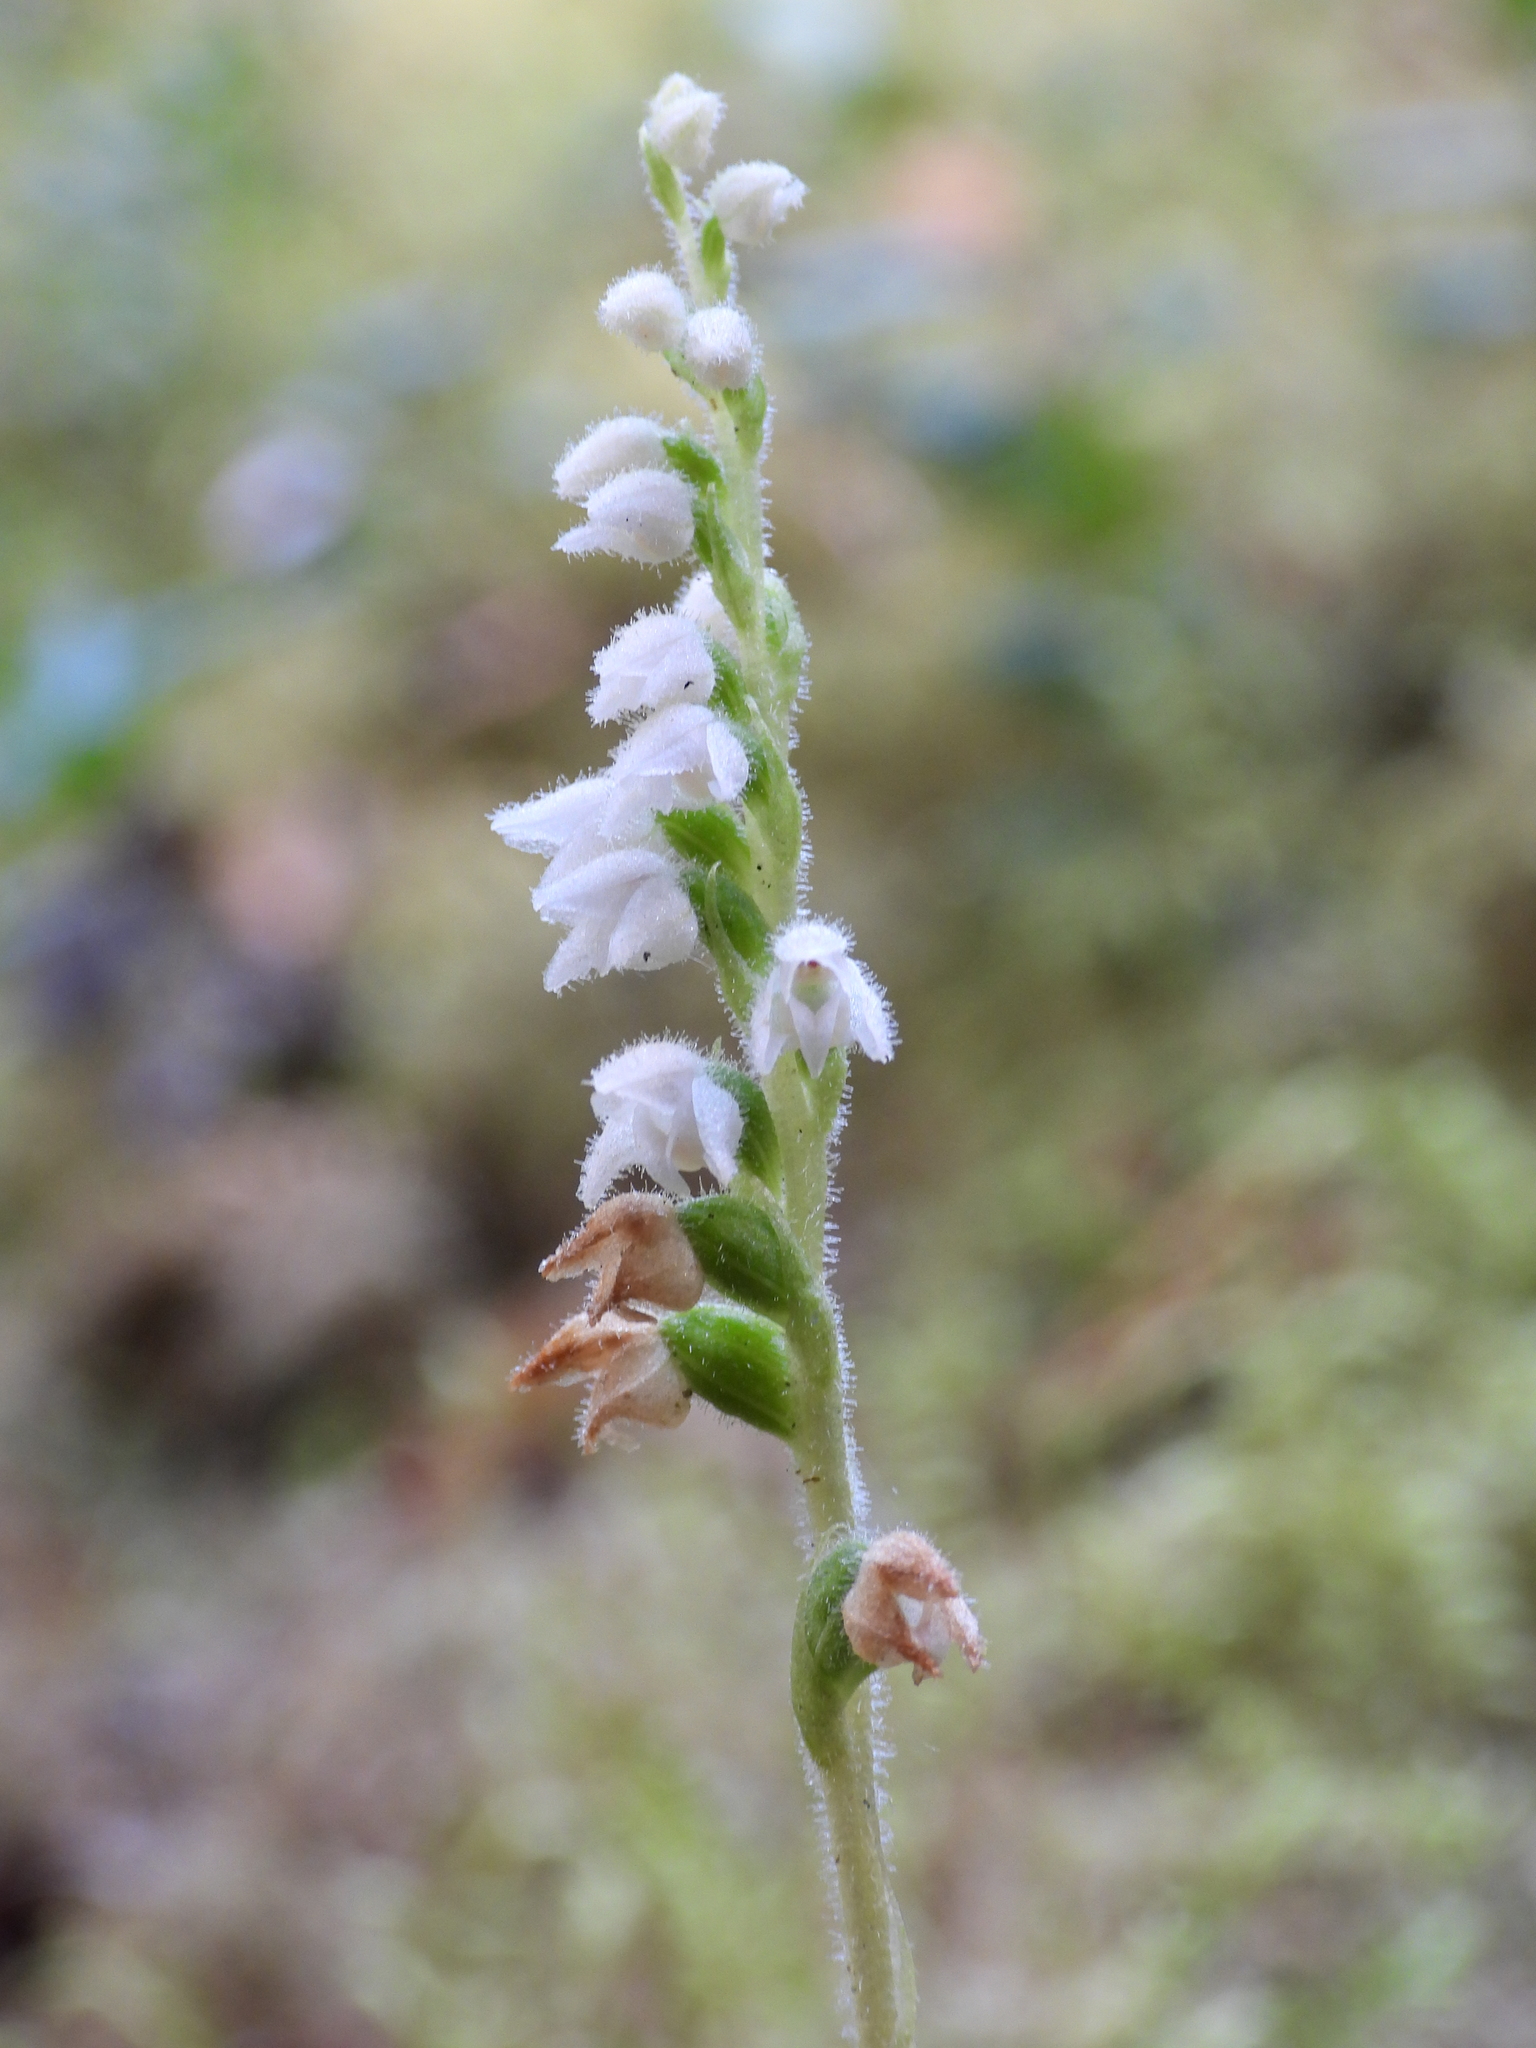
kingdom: Plantae
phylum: Tracheophyta
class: Liliopsida
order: Asparagales
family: Orchidaceae
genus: Goodyera
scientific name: Goodyera repens
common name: Creeping lady's-tresses
